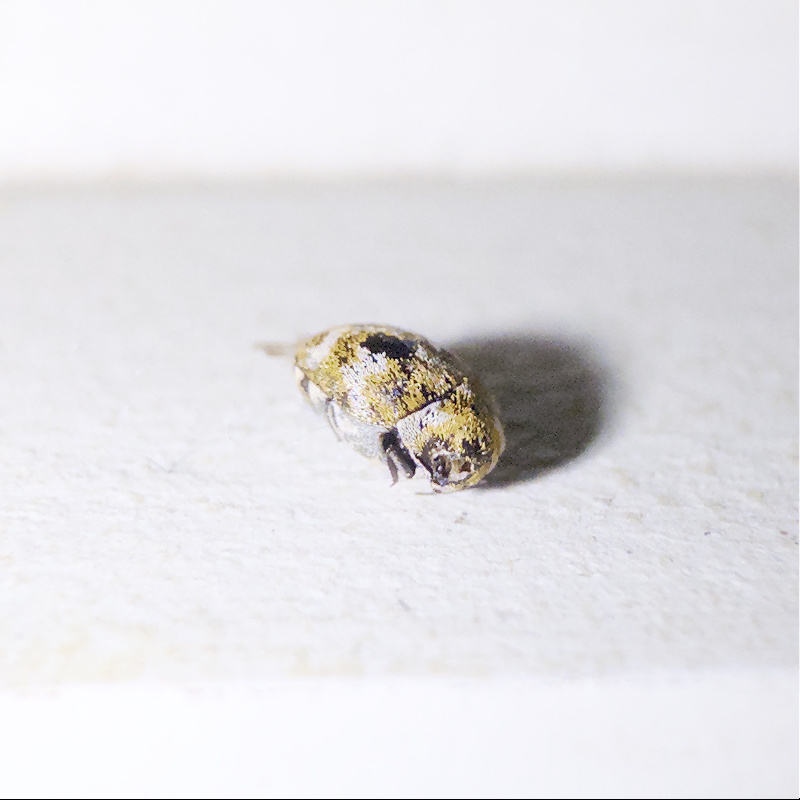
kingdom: Animalia
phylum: Arthropoda
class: Insecta
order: Coleoptera
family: Dermestidae
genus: Anthrenus
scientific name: Anthrenus verbasci
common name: Varied carpet beetle
